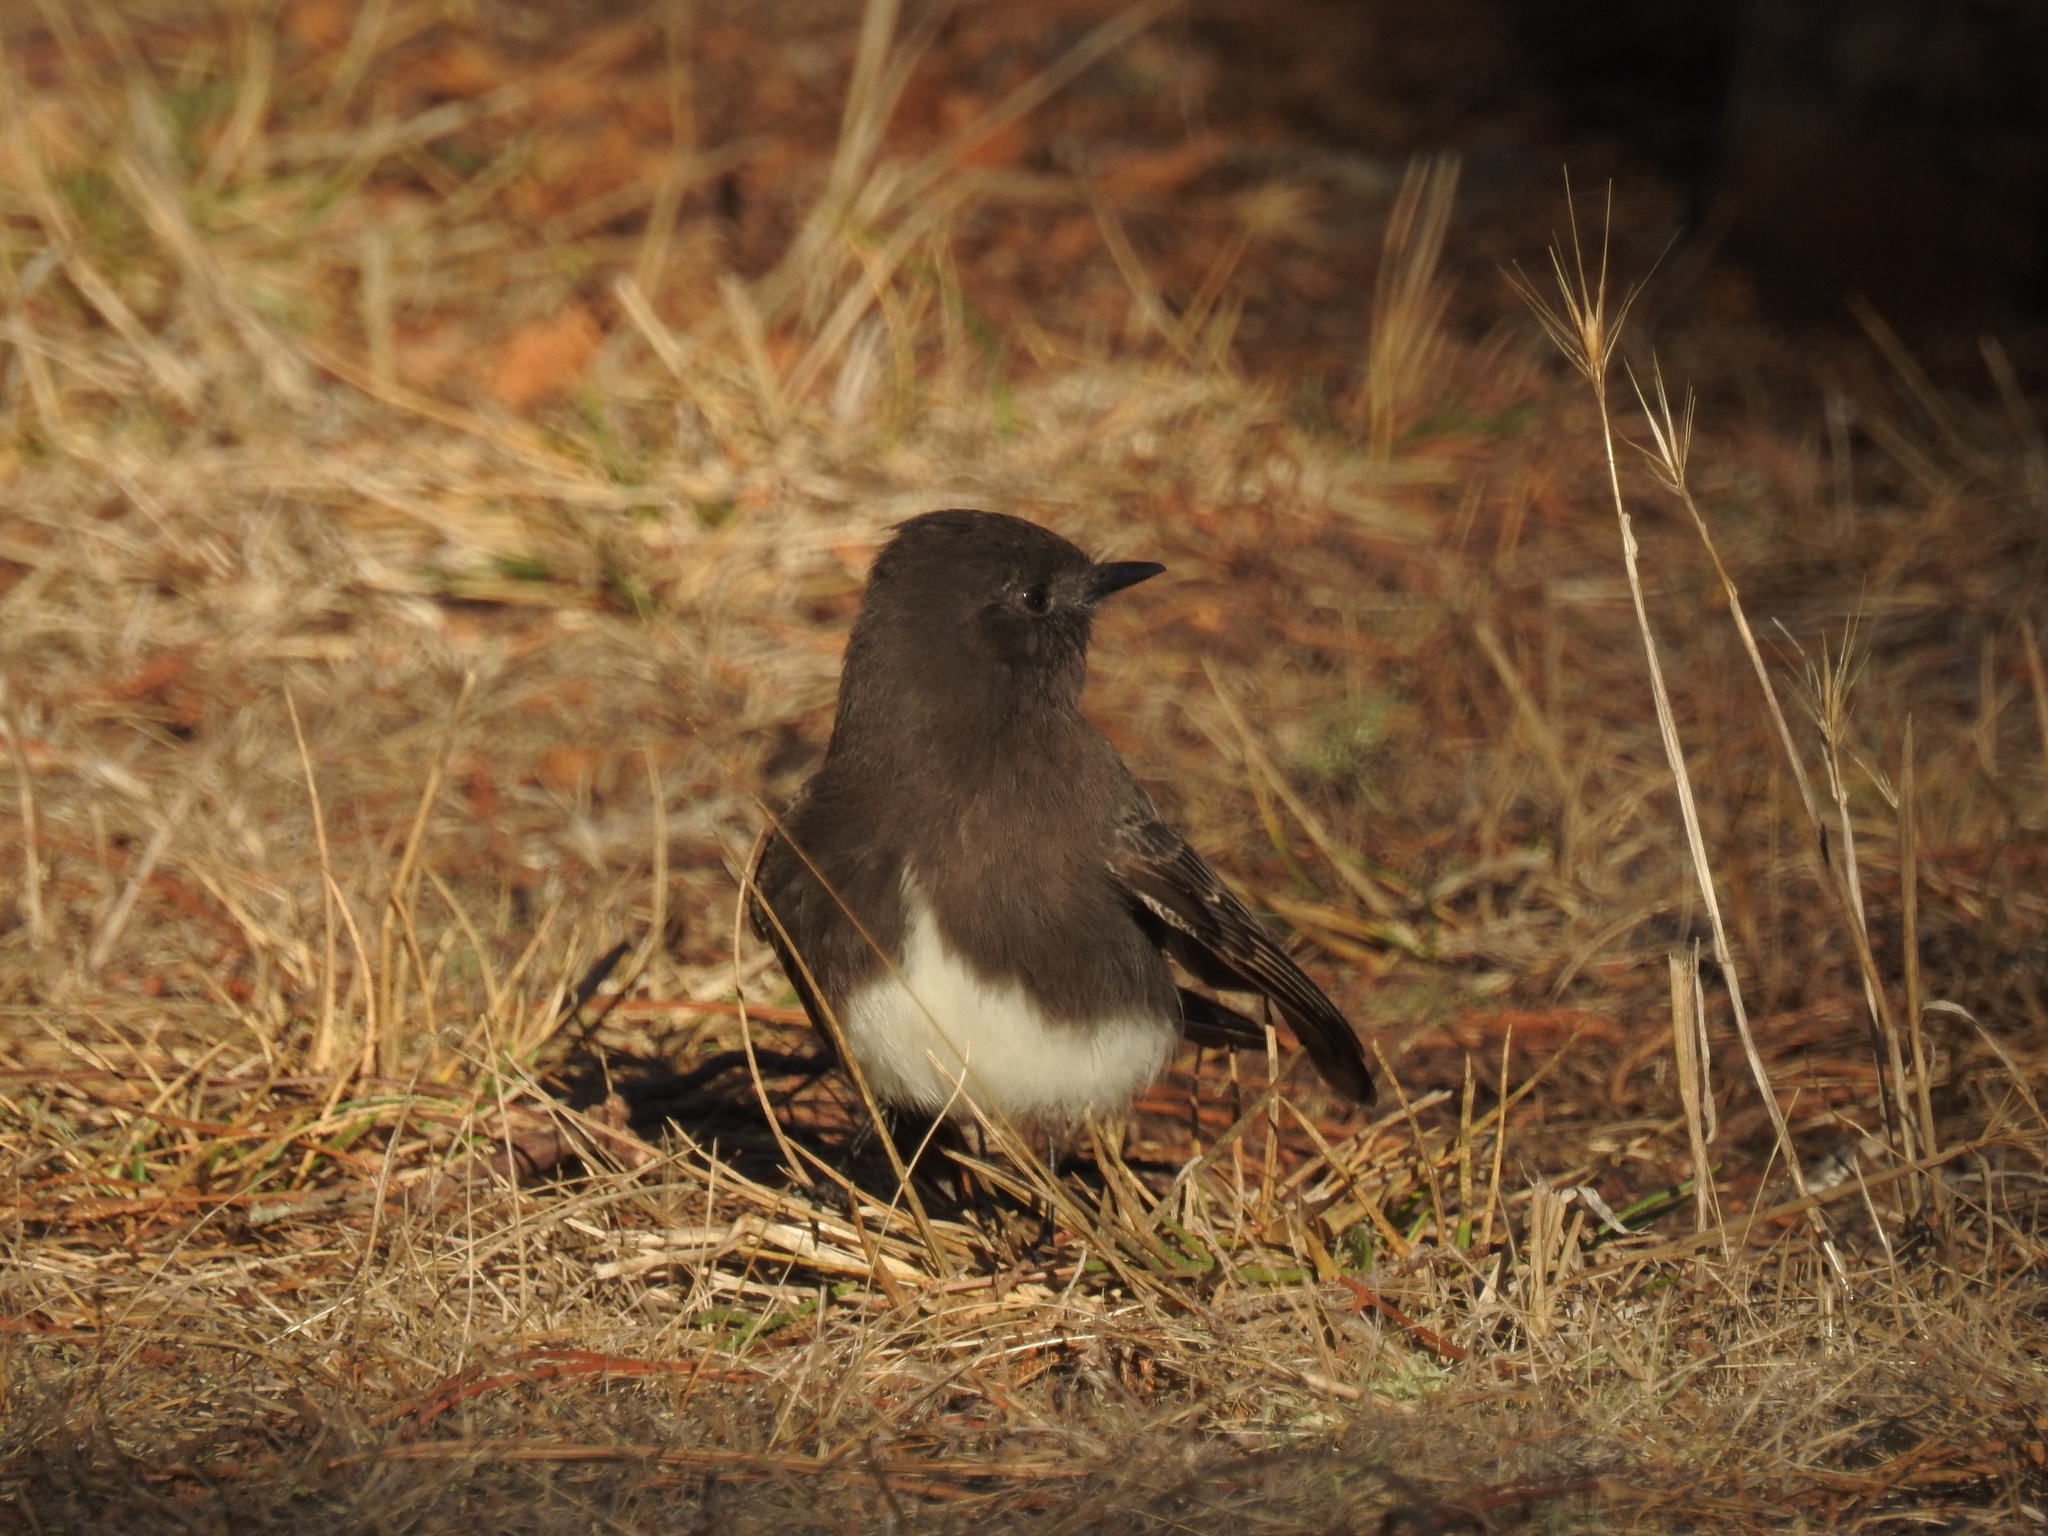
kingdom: Animalia
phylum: Chordata
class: Aves
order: Passeriformes
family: Tyrannidae
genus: Sayornis
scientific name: Sayornis nigricans
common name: Black phoebe
